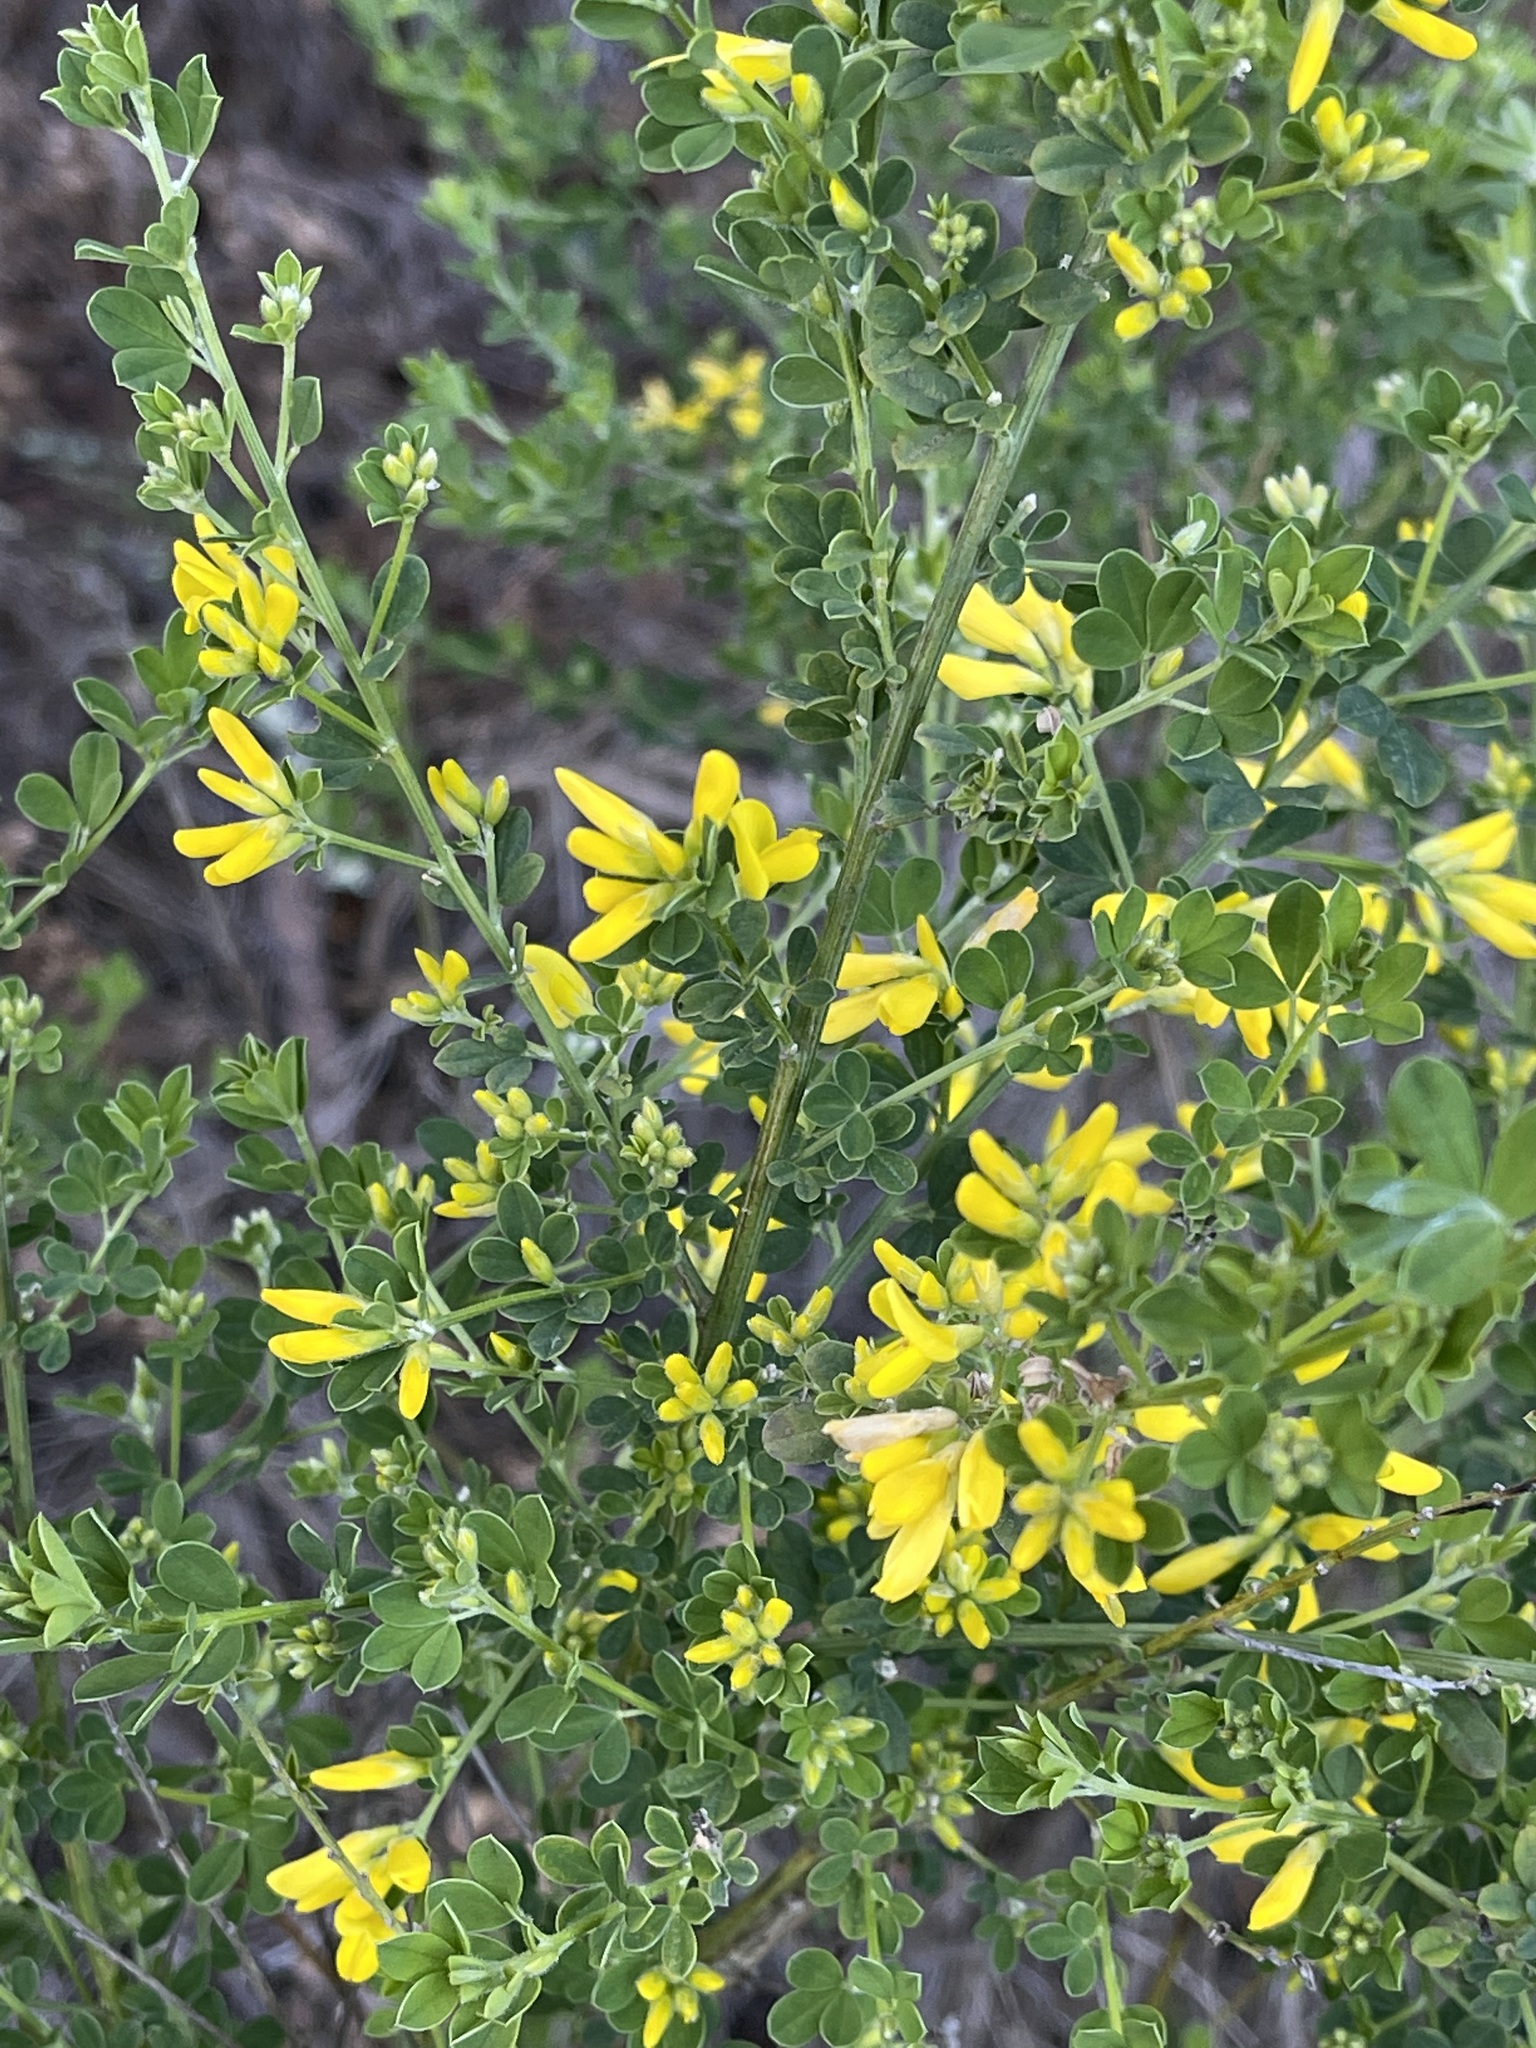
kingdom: Plantae
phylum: Tracheophyta
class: Magnoliopsida
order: Fabales
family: Fabaceae
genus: Genista
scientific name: Genista monspessulana
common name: Montpellier broom
